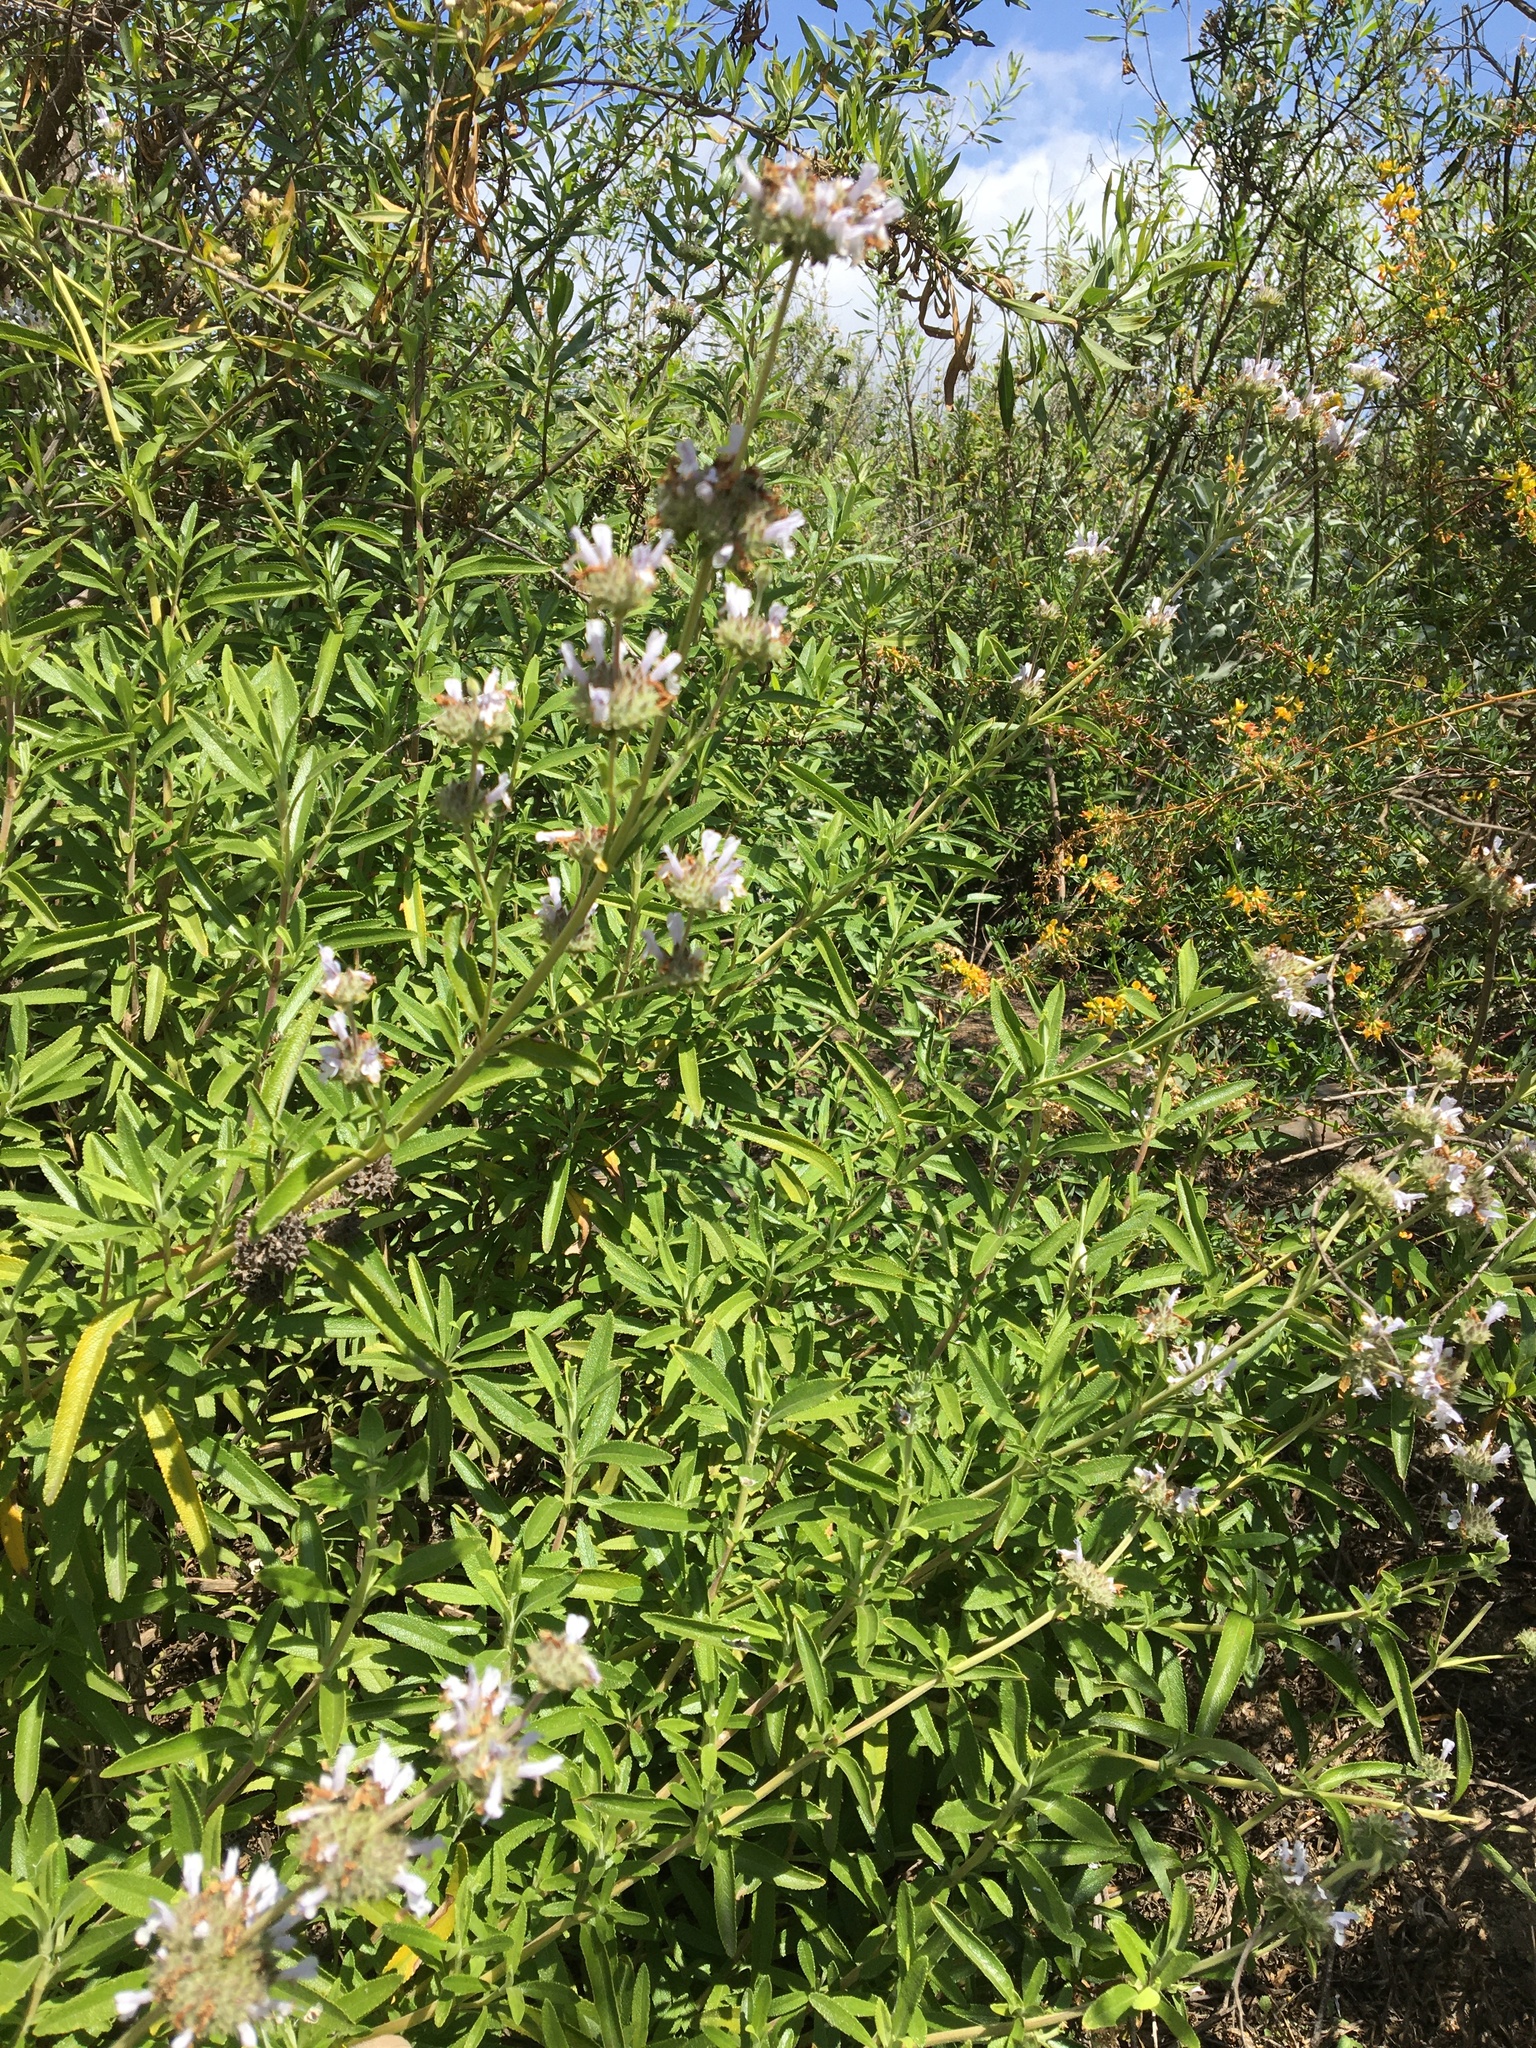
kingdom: Plantae
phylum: Tracheophyta
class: Magnoliopsida
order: Lamiales
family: Lamiaceae
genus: Salvia
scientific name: Salvia mellifera
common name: Black sage
